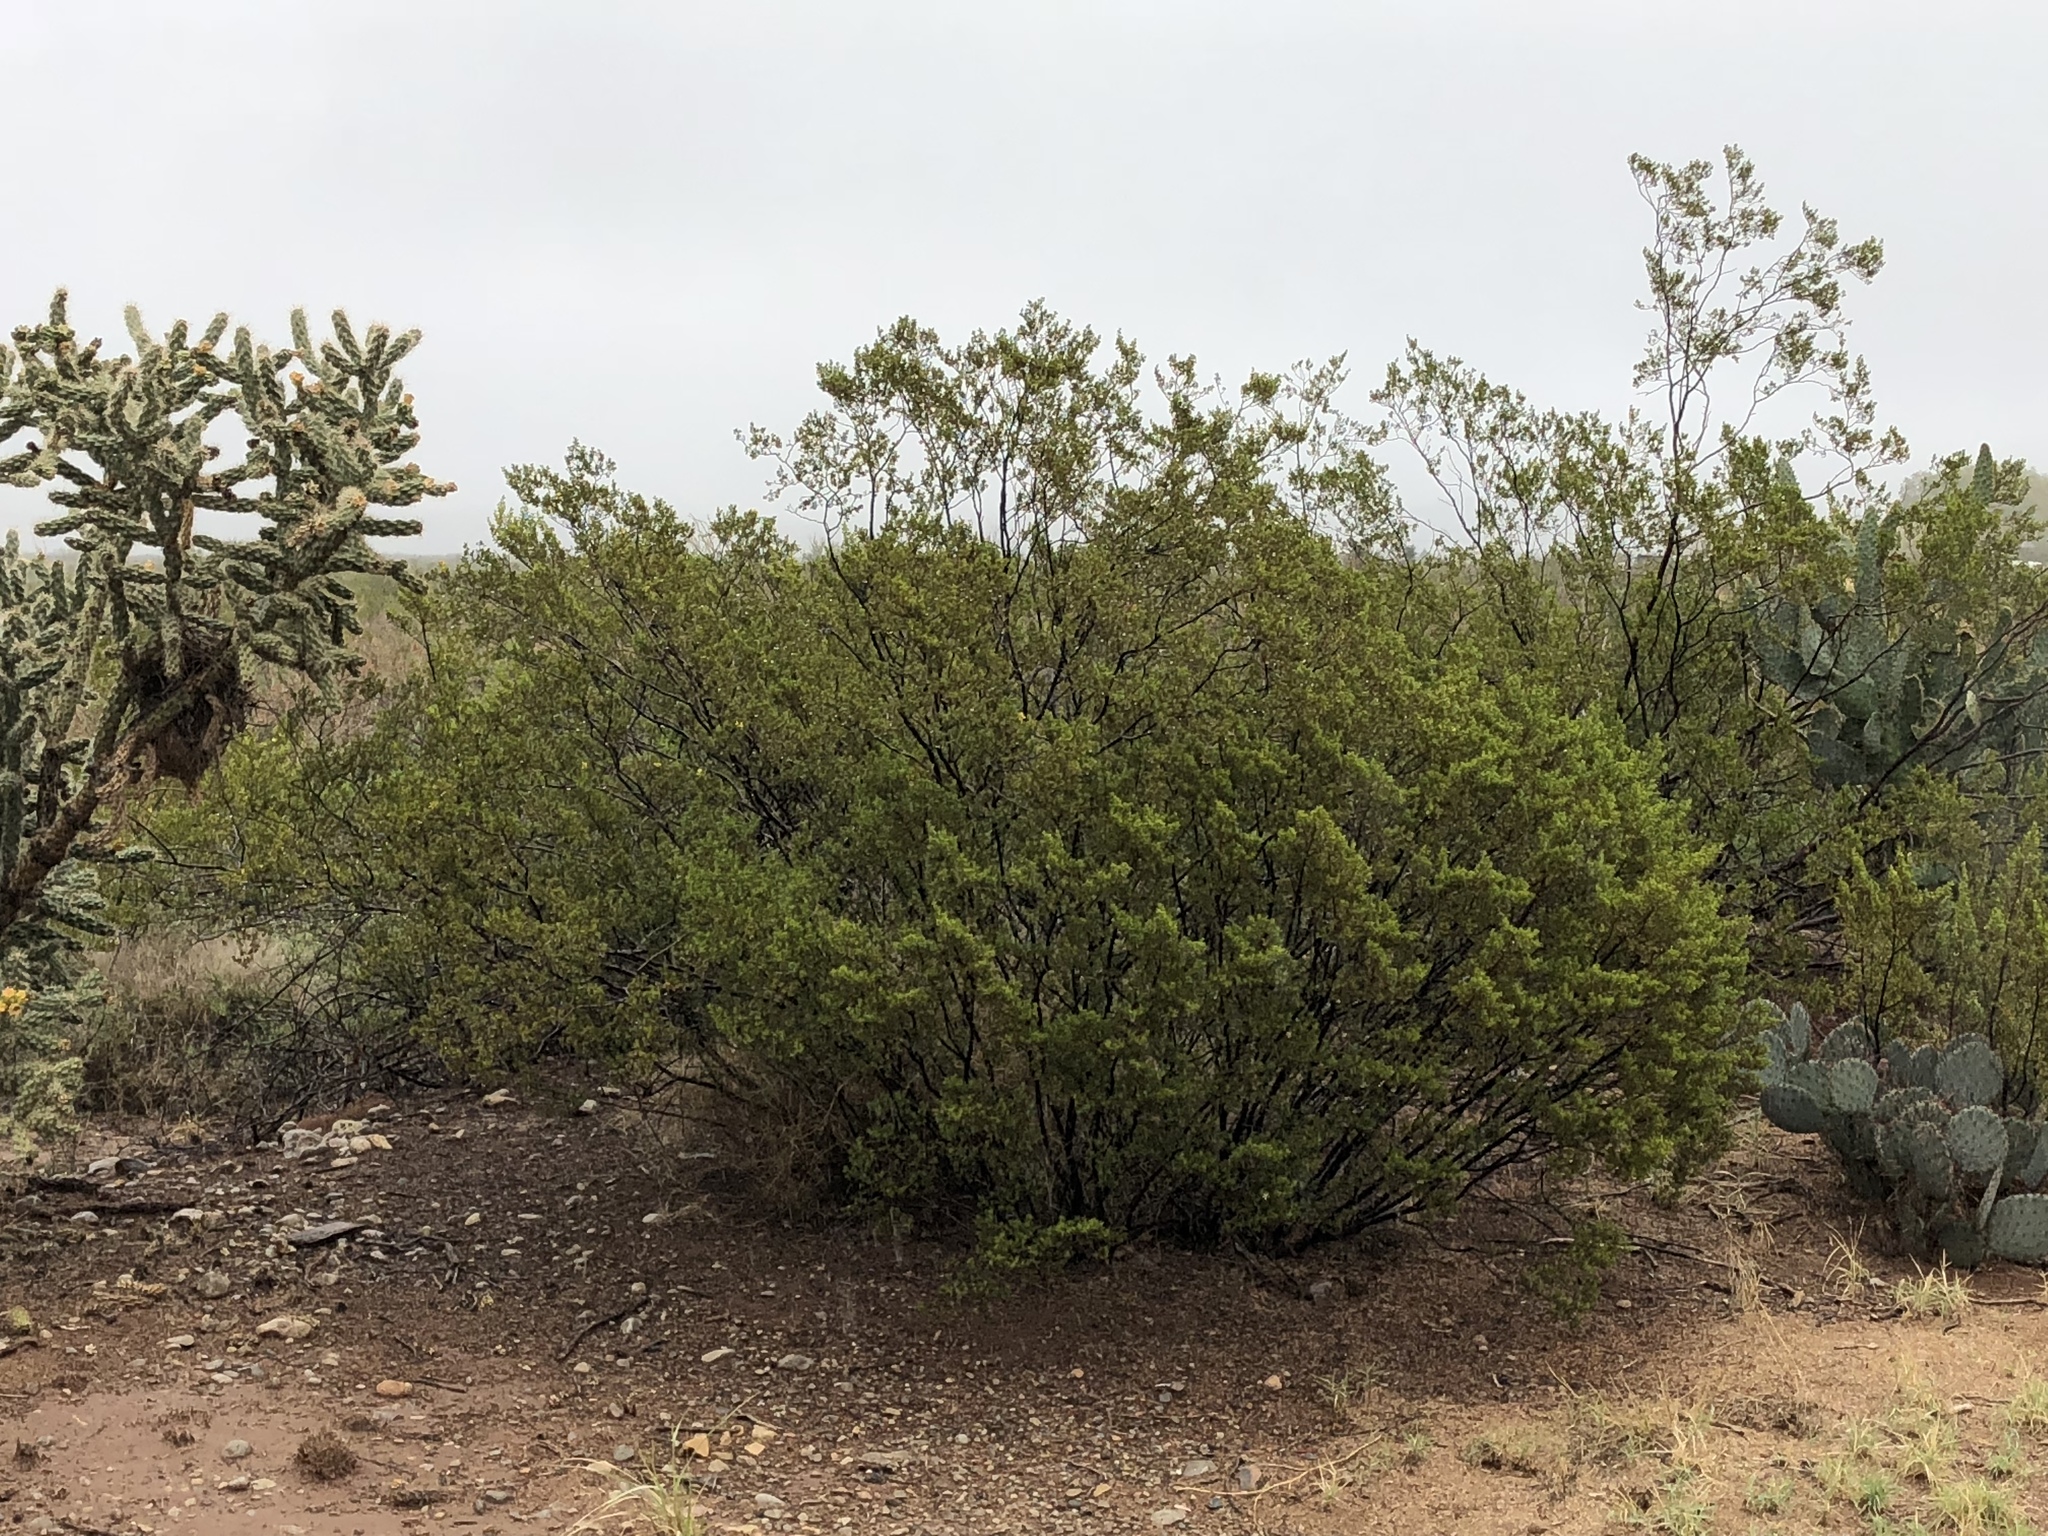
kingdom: Plantae
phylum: Tracheophyta
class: Magnoliopsida
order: Zygophyllales
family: Zygophyllaceae
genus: Larrea
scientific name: Larrea tridentata
